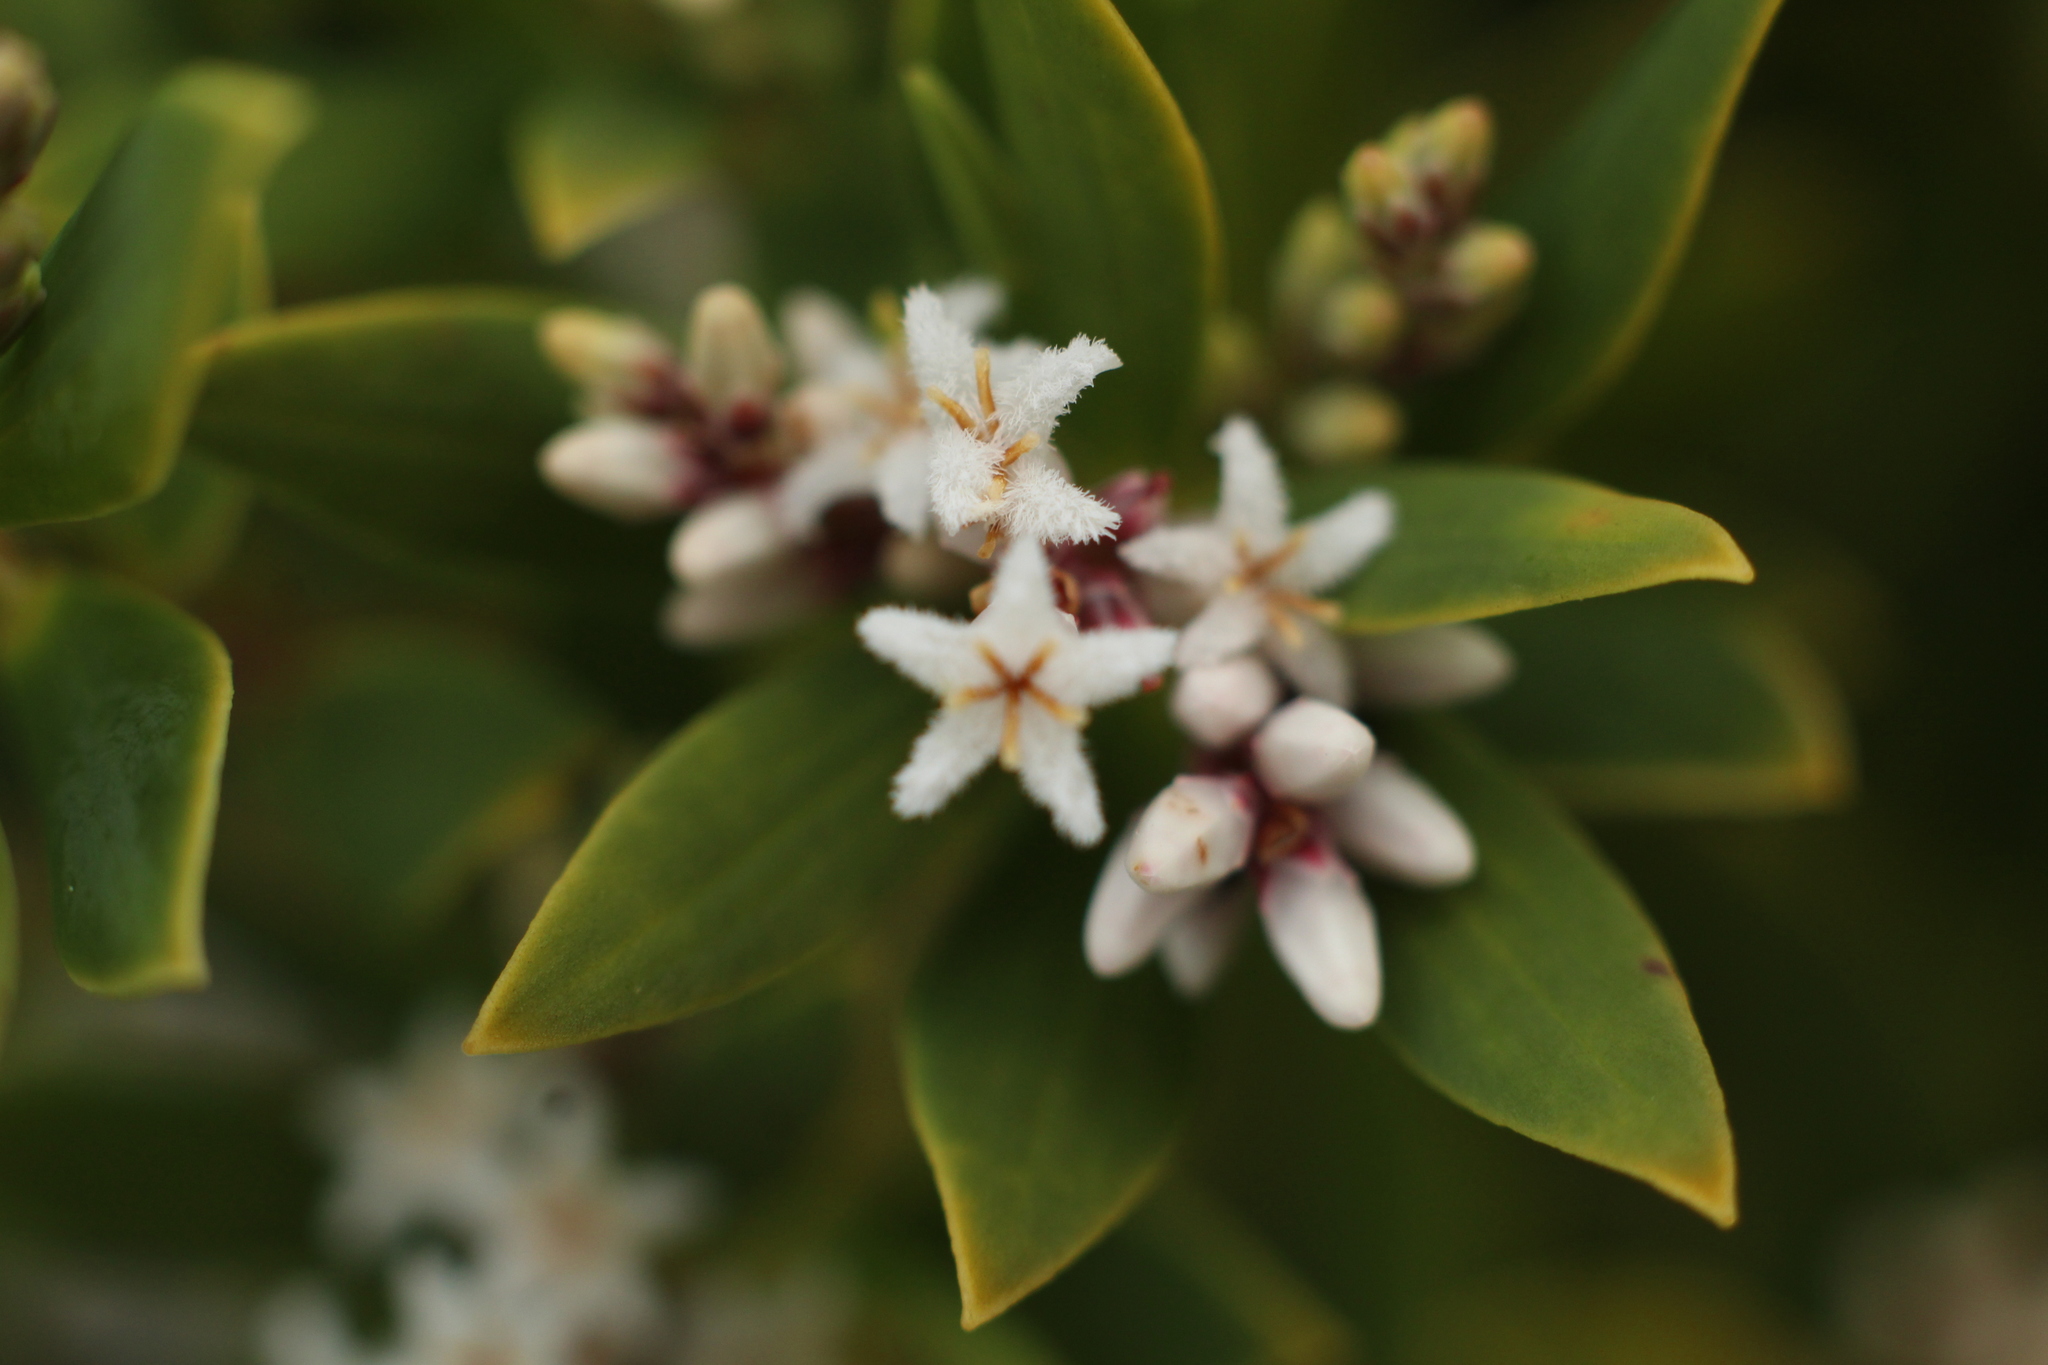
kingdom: Plantae
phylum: Tracheophyta
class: Magnoliopsida
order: Ericales
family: Ericaceae
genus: Leptecophylla
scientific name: Leptecophylla parvifolia
